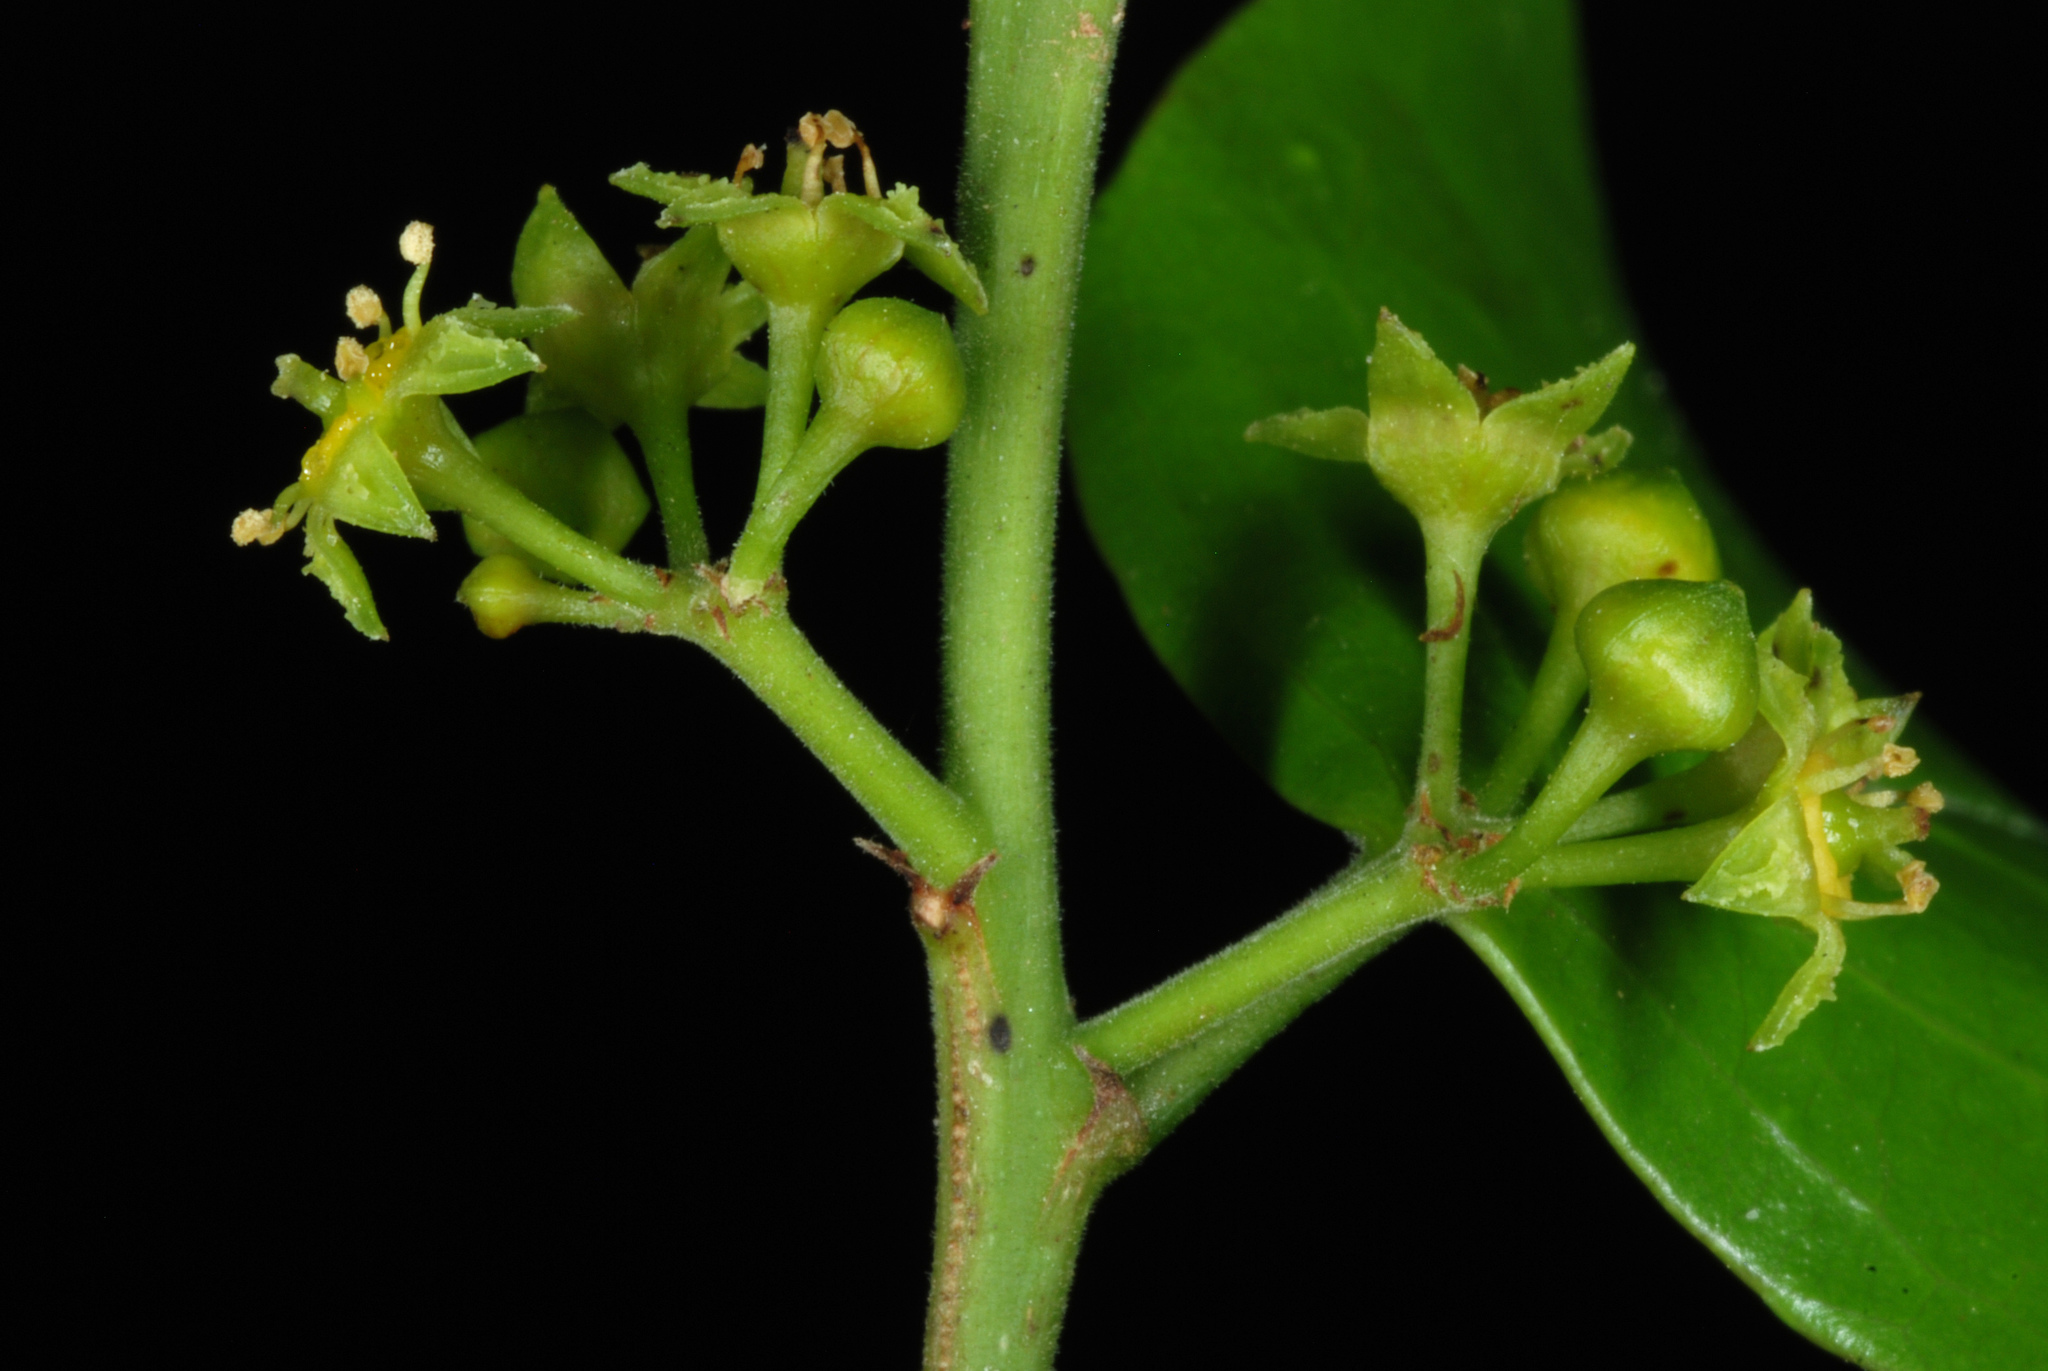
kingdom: Plantae
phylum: Tracheophyta
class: Magnoliopsida
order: Rosales
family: Rhamnaceae
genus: Krugiodendron
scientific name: Krugiodendron ferreum
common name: Iron wood
